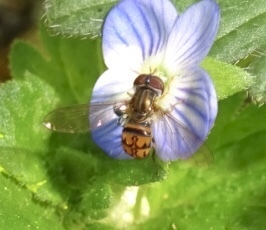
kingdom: Animalia
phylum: Arthropoda
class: Insecta
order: Diptera
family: Syrphidae
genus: Toxomerus
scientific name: Toxomerus boscii
